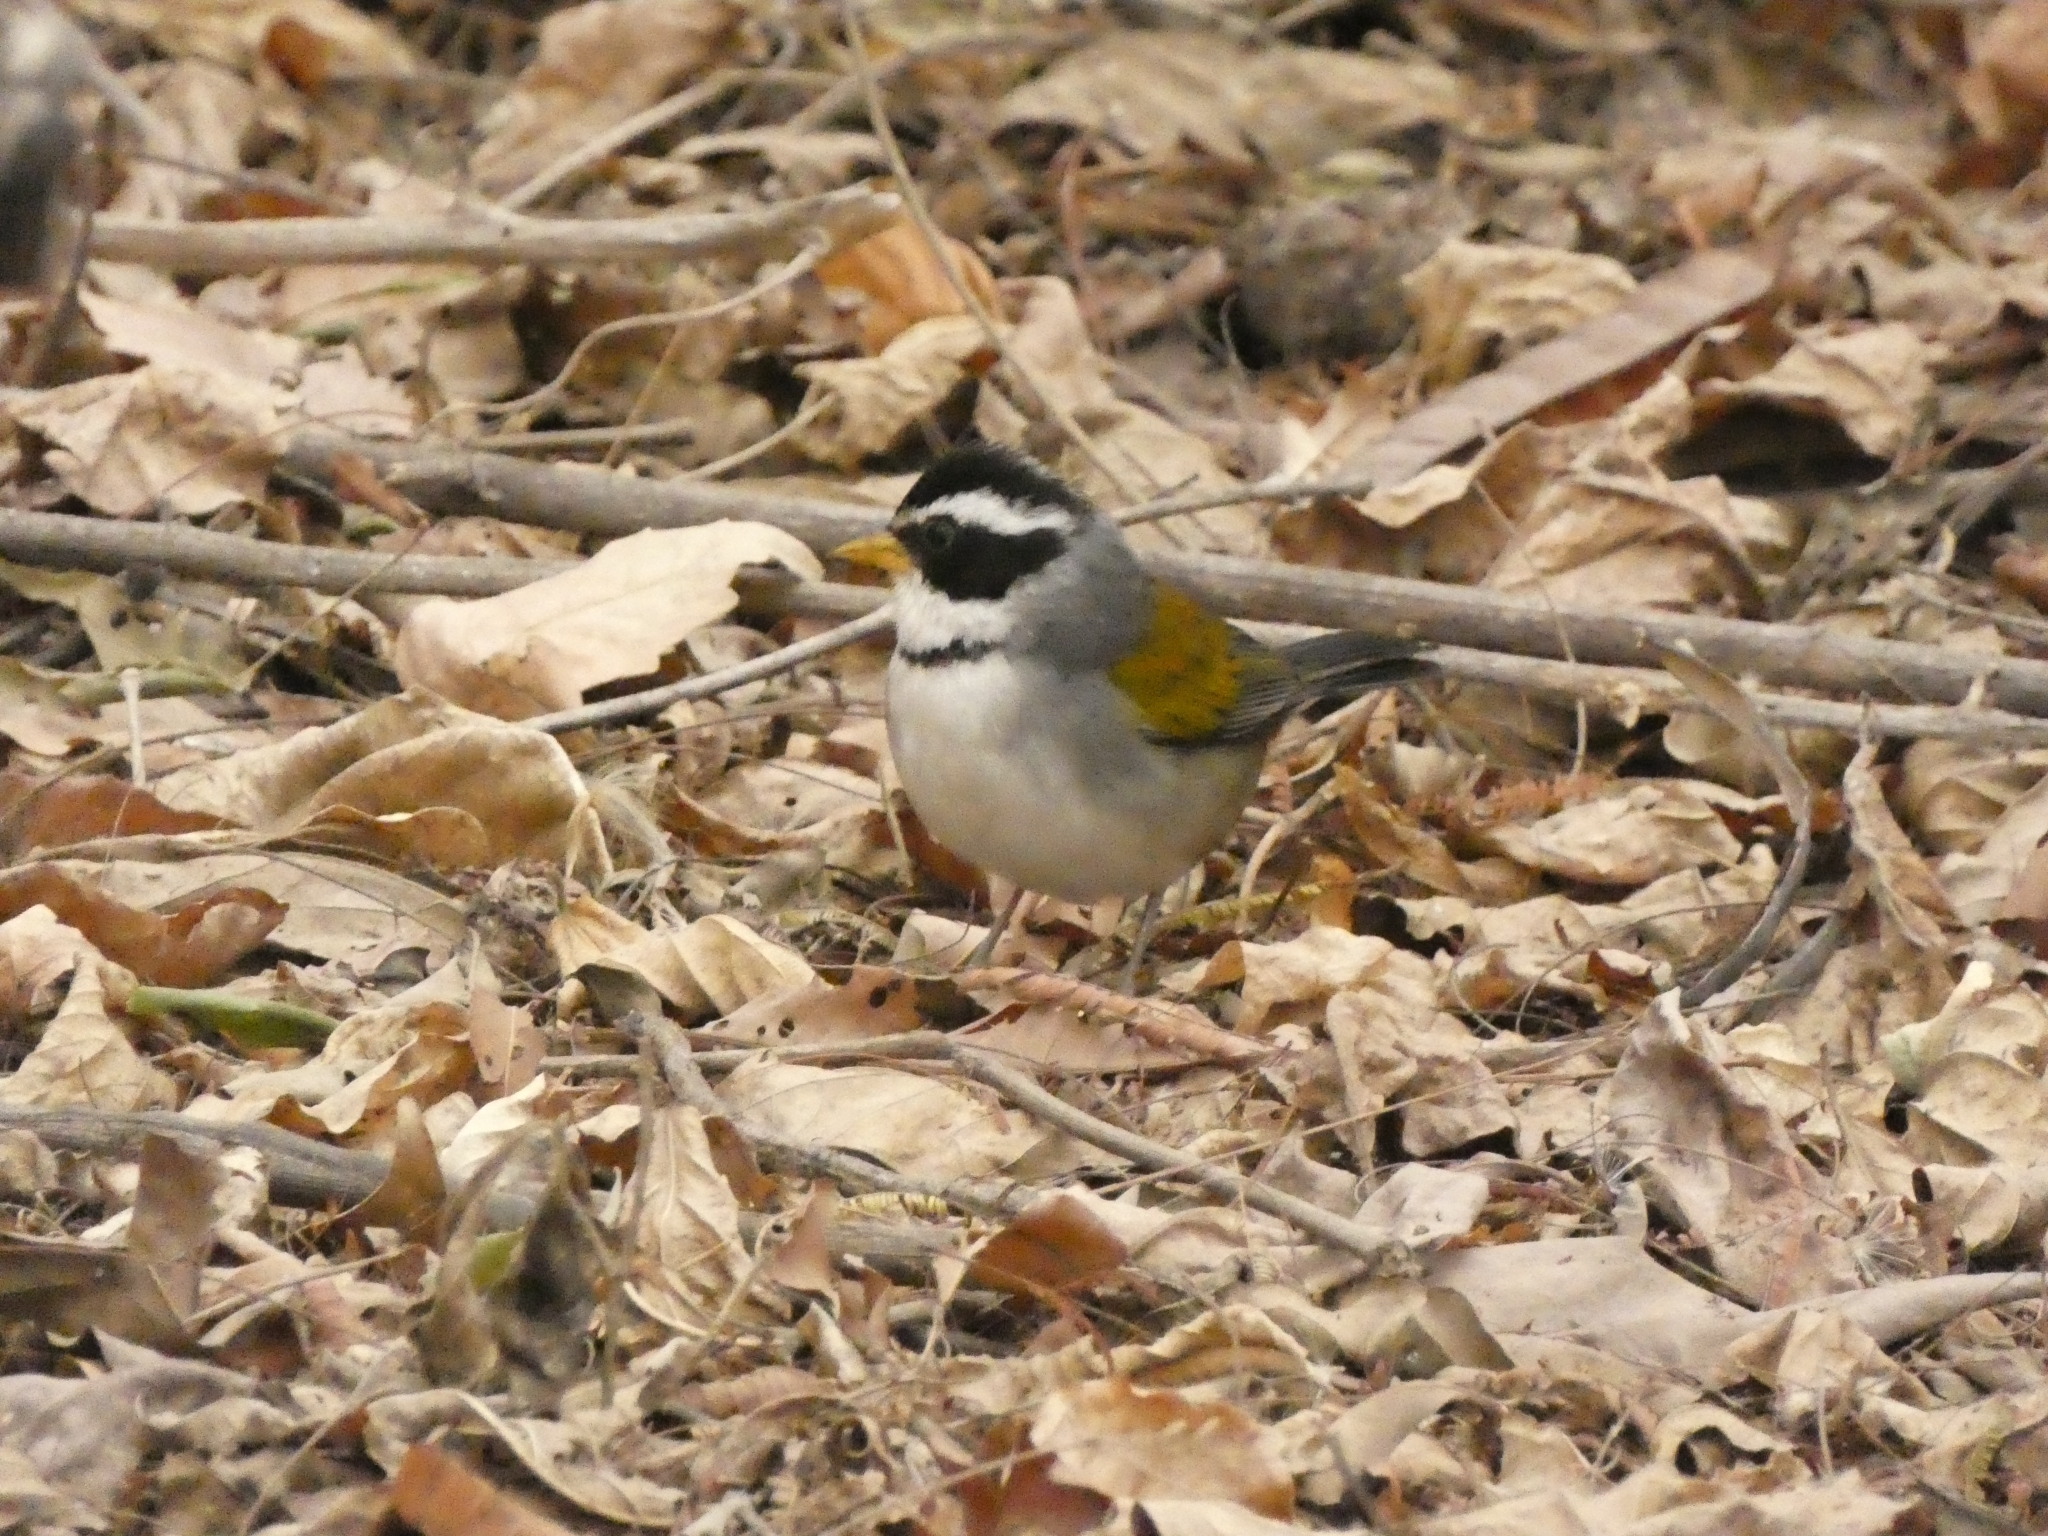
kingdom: Animalia
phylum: Chordata
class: Aves
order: Passeriformes
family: Passerellidae
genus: Arremon
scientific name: Arremon dorbignii
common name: Moss-backed sparrow
